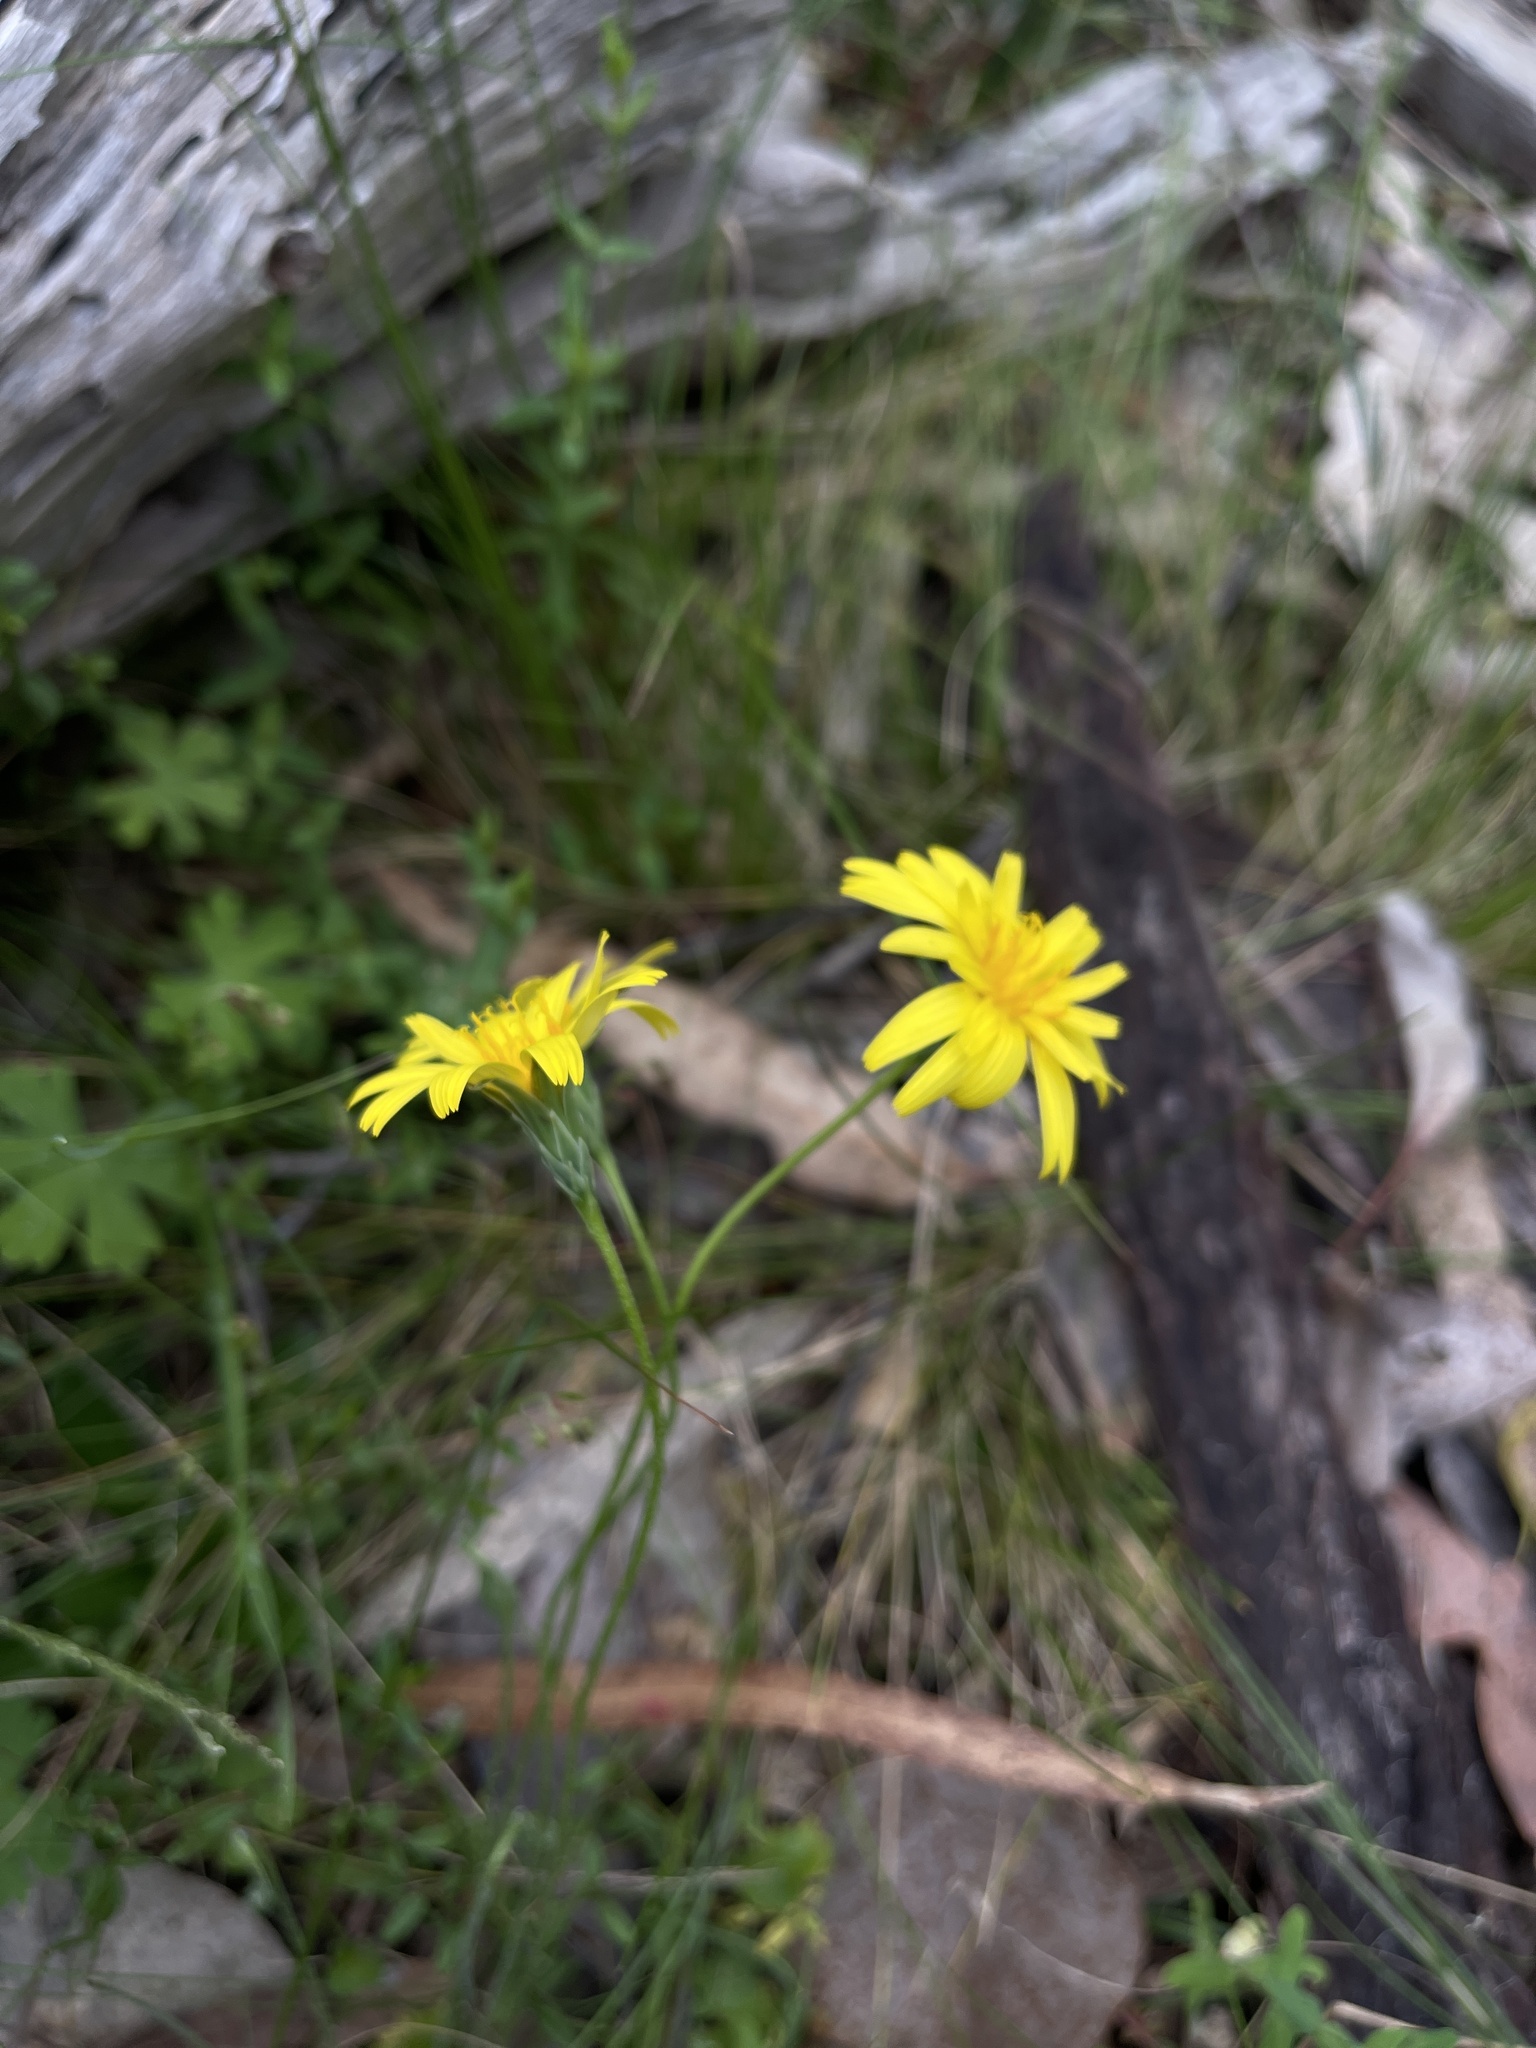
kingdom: Plantae
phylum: Tracheophyta
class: Magnoliopsida
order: Asterales
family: Asteraceae
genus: Microseris
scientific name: Microseris lanceolata
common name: Yam daisy
